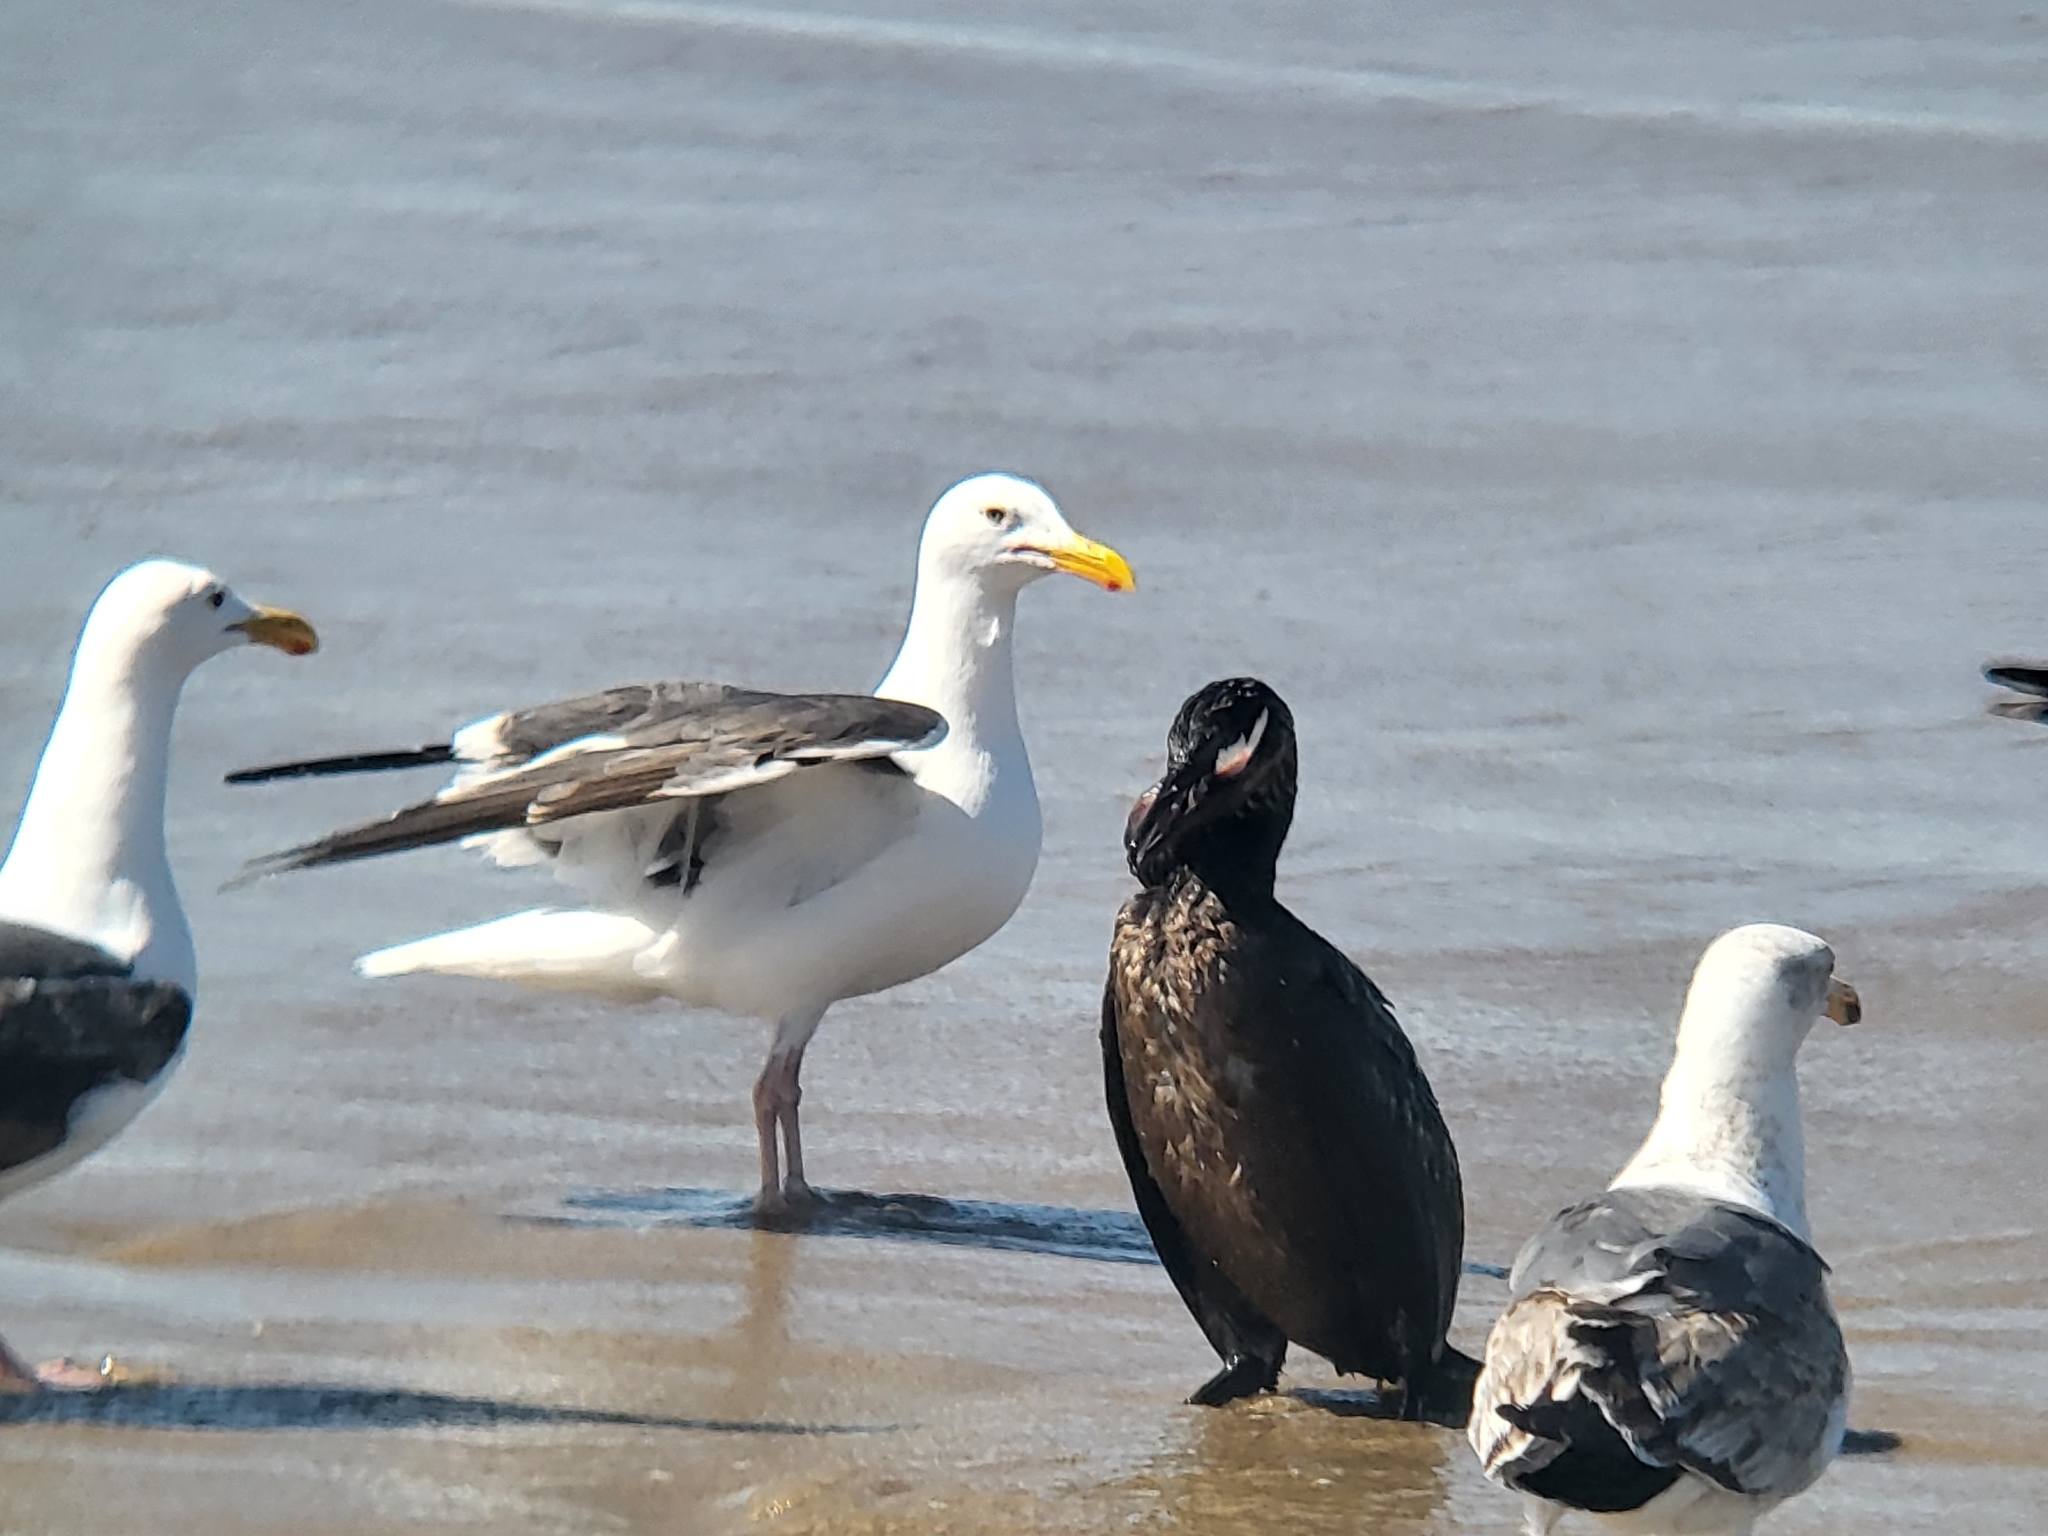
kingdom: Animalia
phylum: Chordata
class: Aves
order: Suliformes
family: Phalacrocoracidae
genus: Urile
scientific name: Urile penicillatus
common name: Brandt's cormorant
